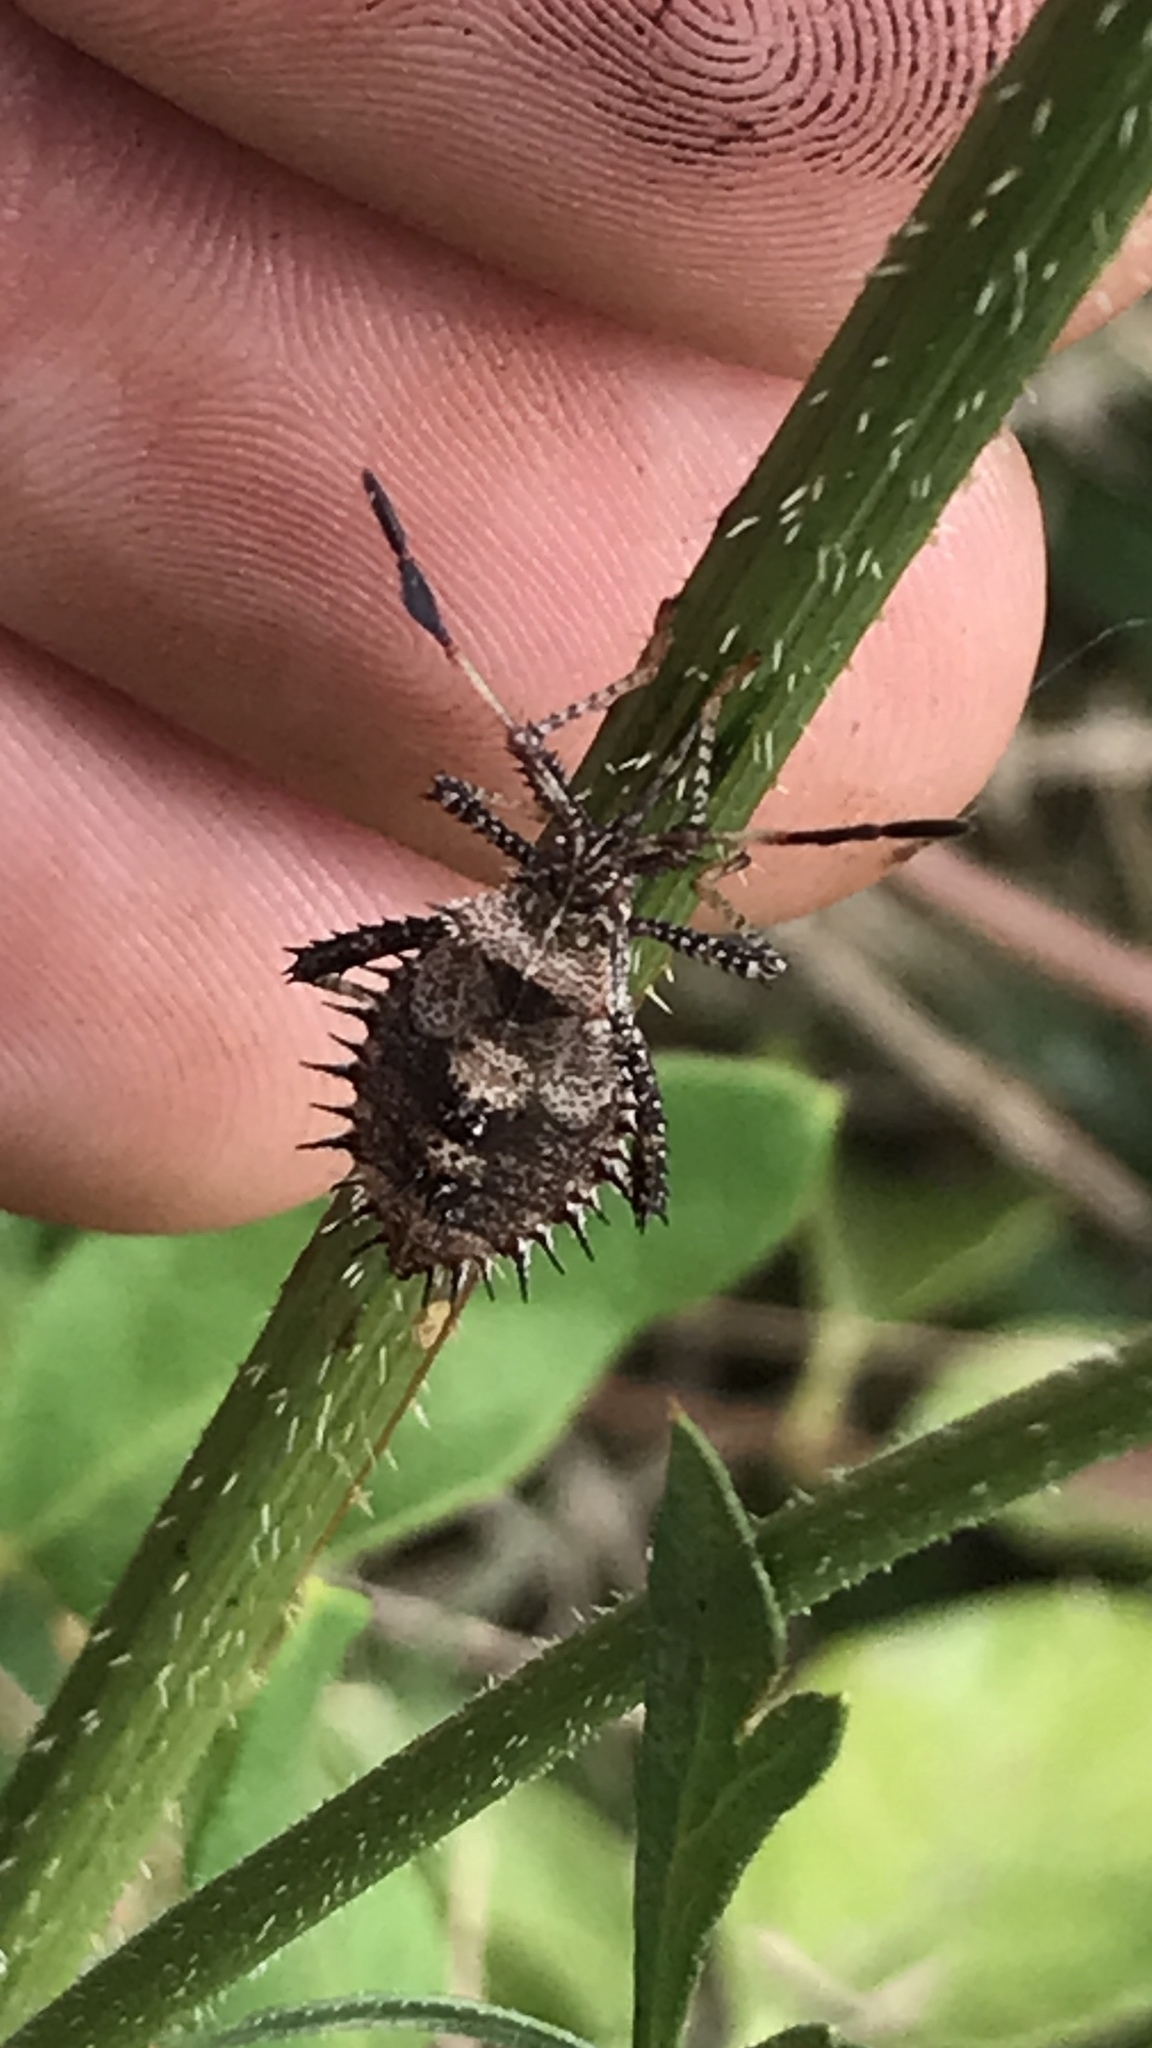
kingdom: Animalia
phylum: Arthropoda
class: Insecta
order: Hemiptera
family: Coreidae
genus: Euthochtha
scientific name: Euthochtha galeator
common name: Helmeted squash bug
